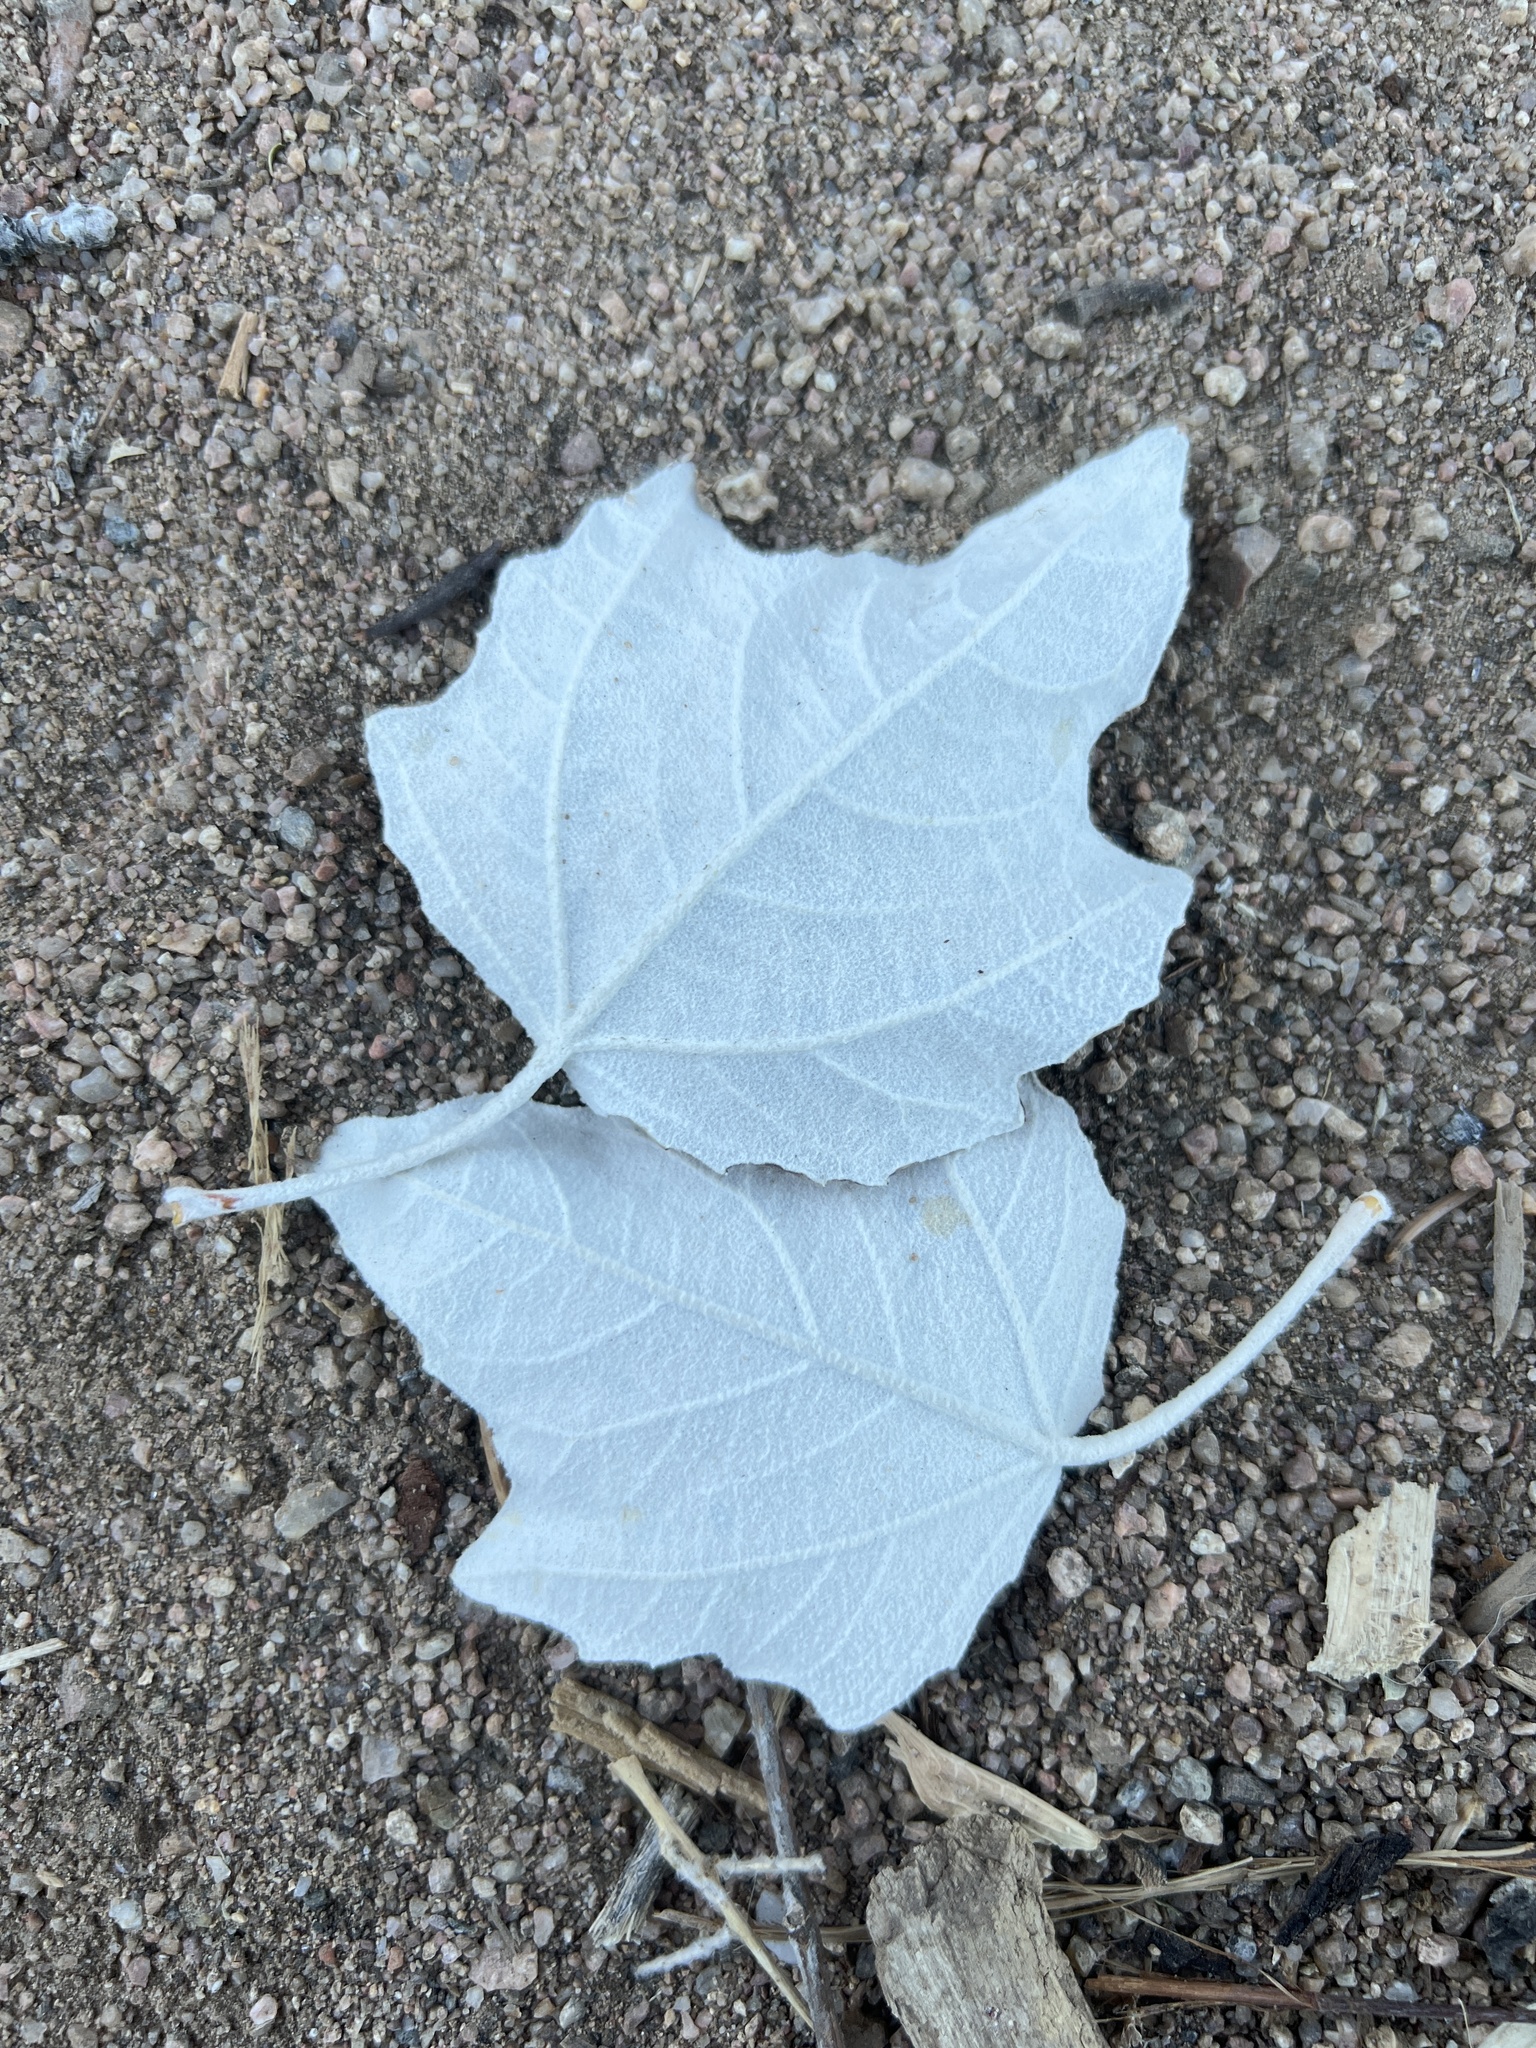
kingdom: Plantae
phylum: Tracheophyta
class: Magnoliopsida
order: Malpighiales
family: Salicaceae
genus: Populus
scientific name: Populus alba
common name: White poplar
